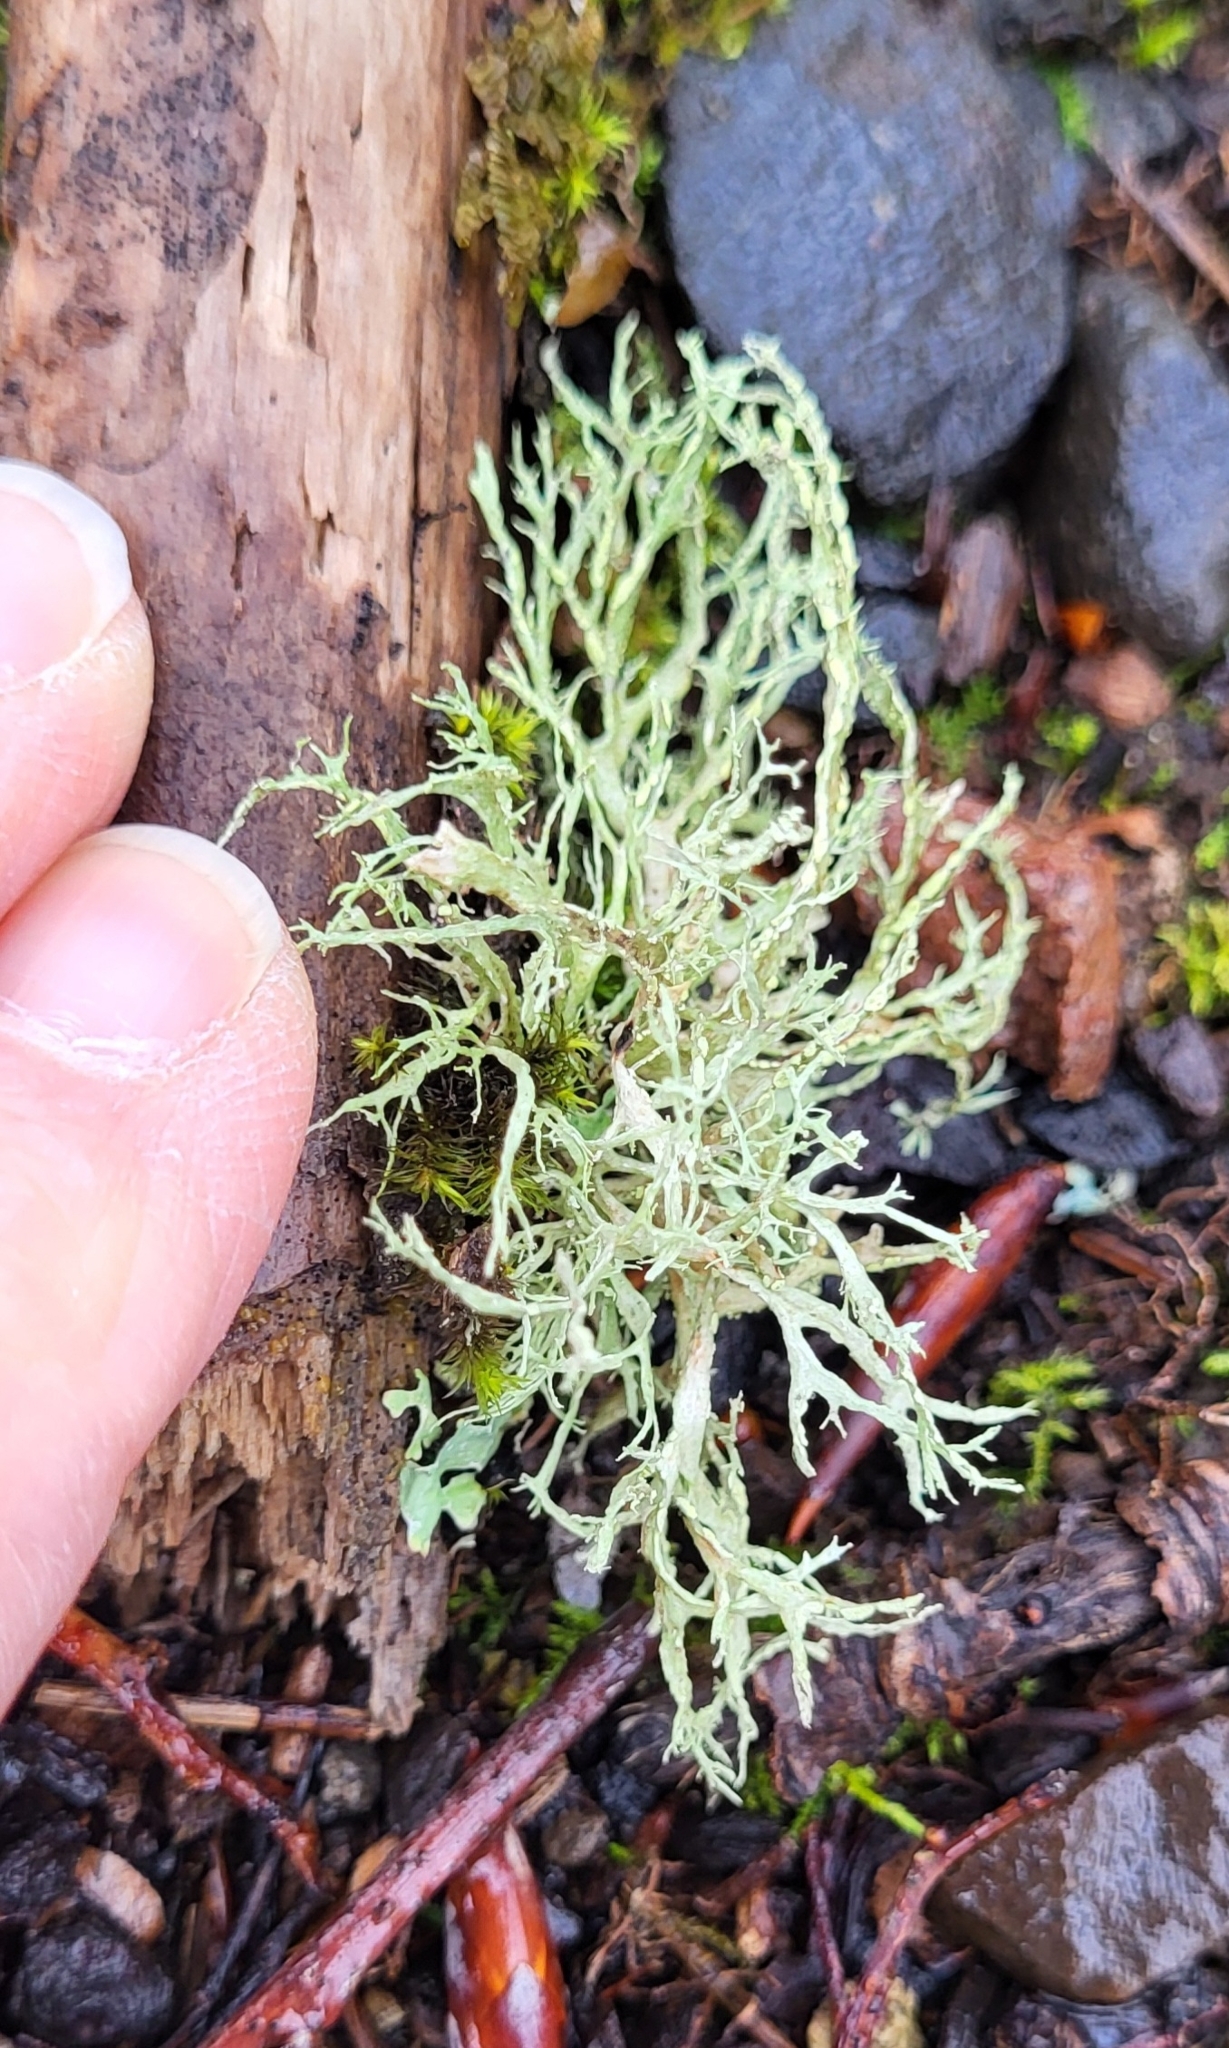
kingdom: Fungi
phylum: Ascomycota
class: Lecanoromycetes
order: Lecanorales
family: Ramalinaceae
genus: Ramalina
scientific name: Ramalina farinacea
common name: Farinose cartilage lichen
